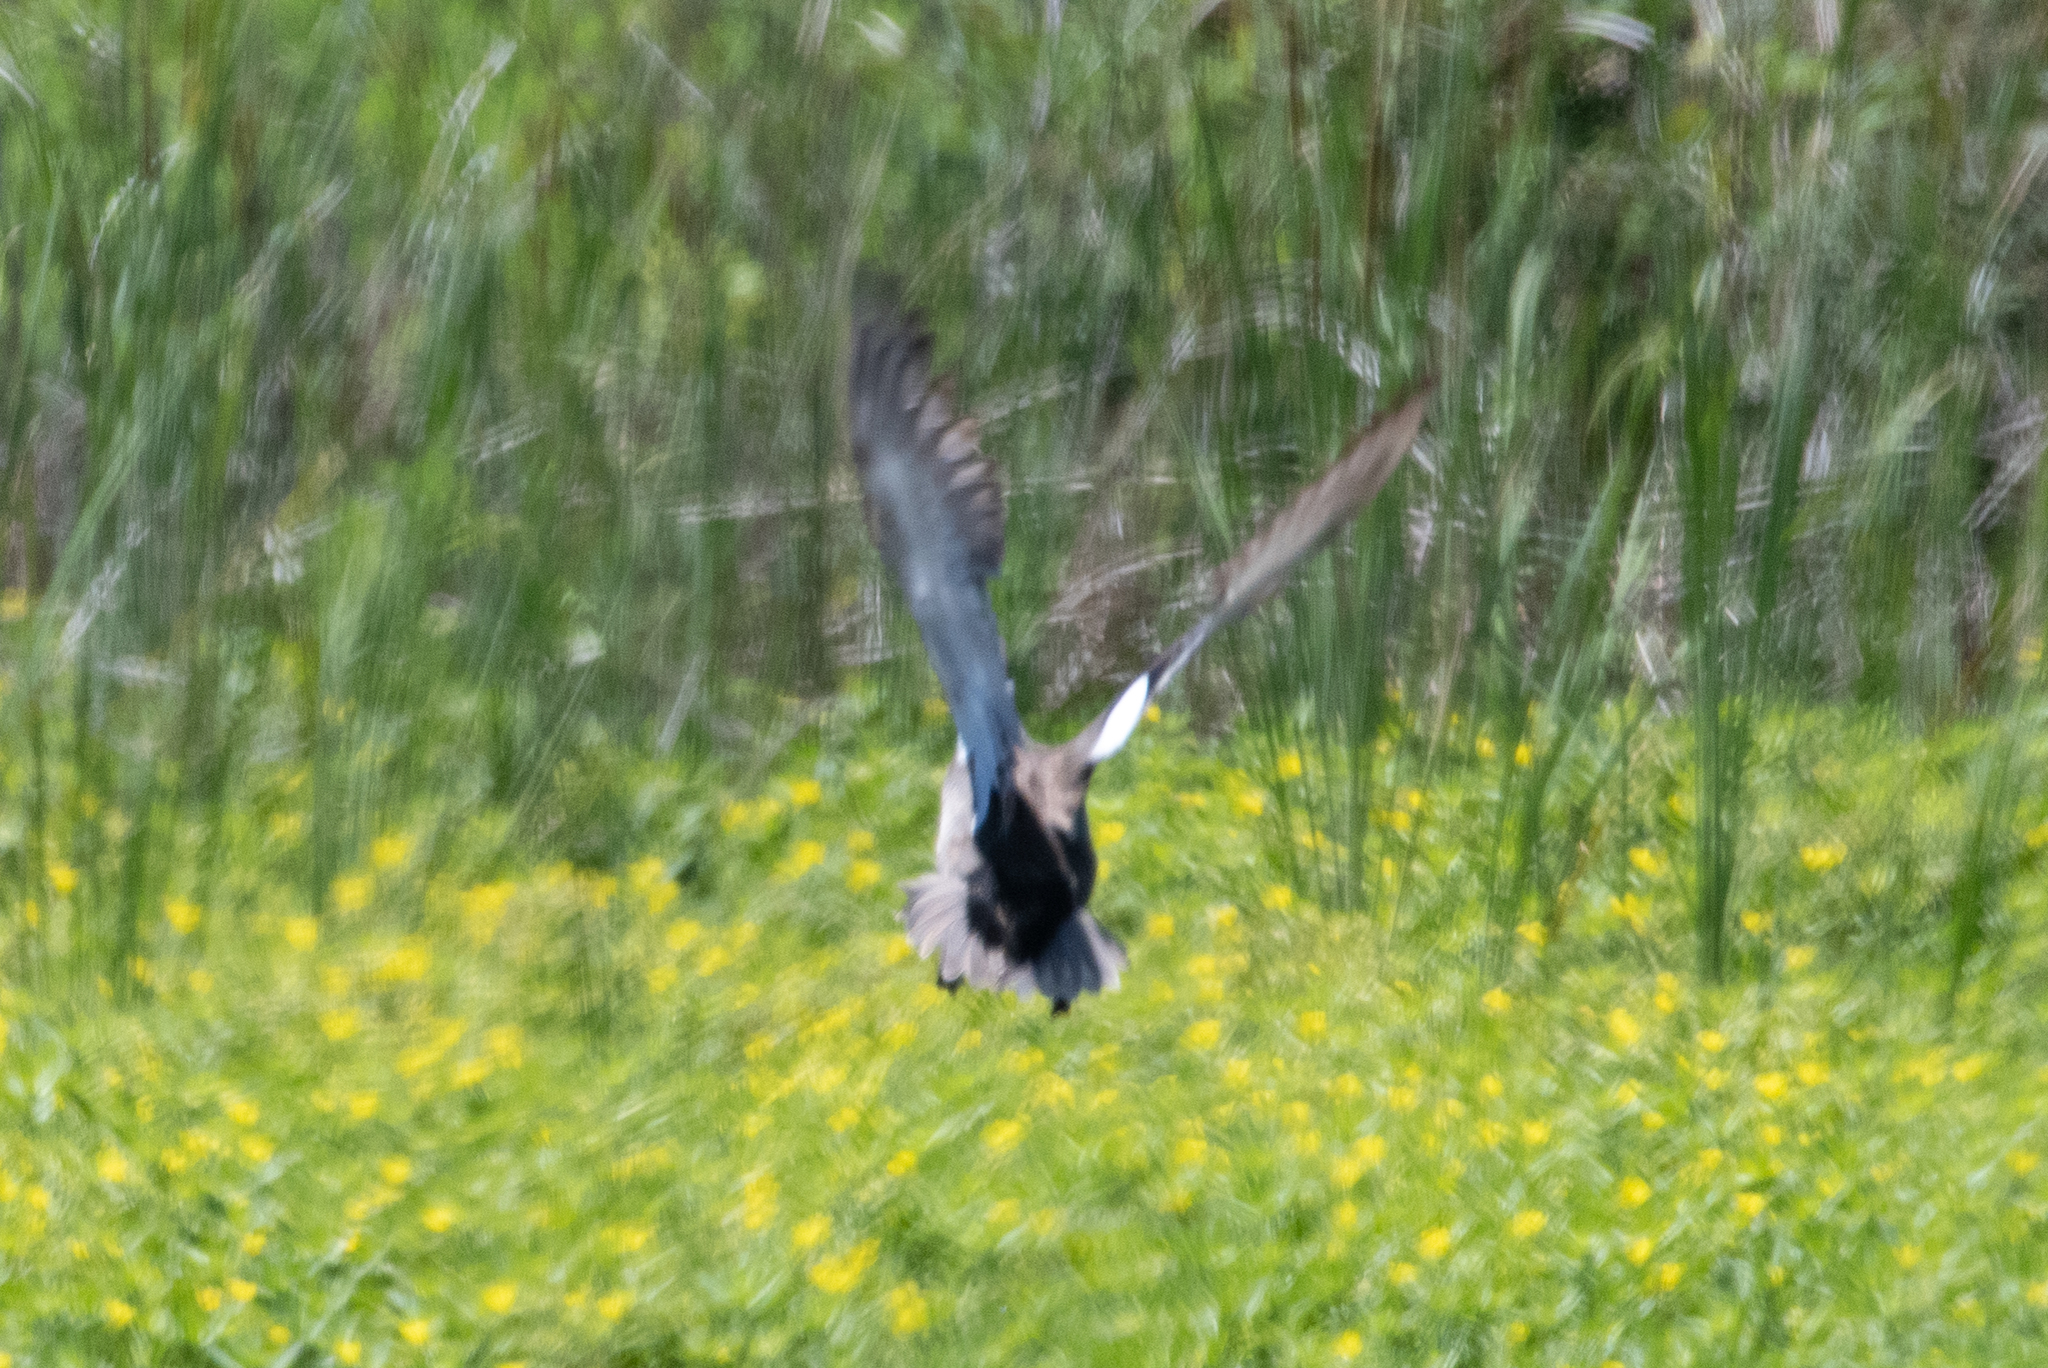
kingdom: Animalia
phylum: Chordata
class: Aves
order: Anseriformes
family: Anatidae
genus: Mareca
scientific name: Mareca strepera
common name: Gadwall
